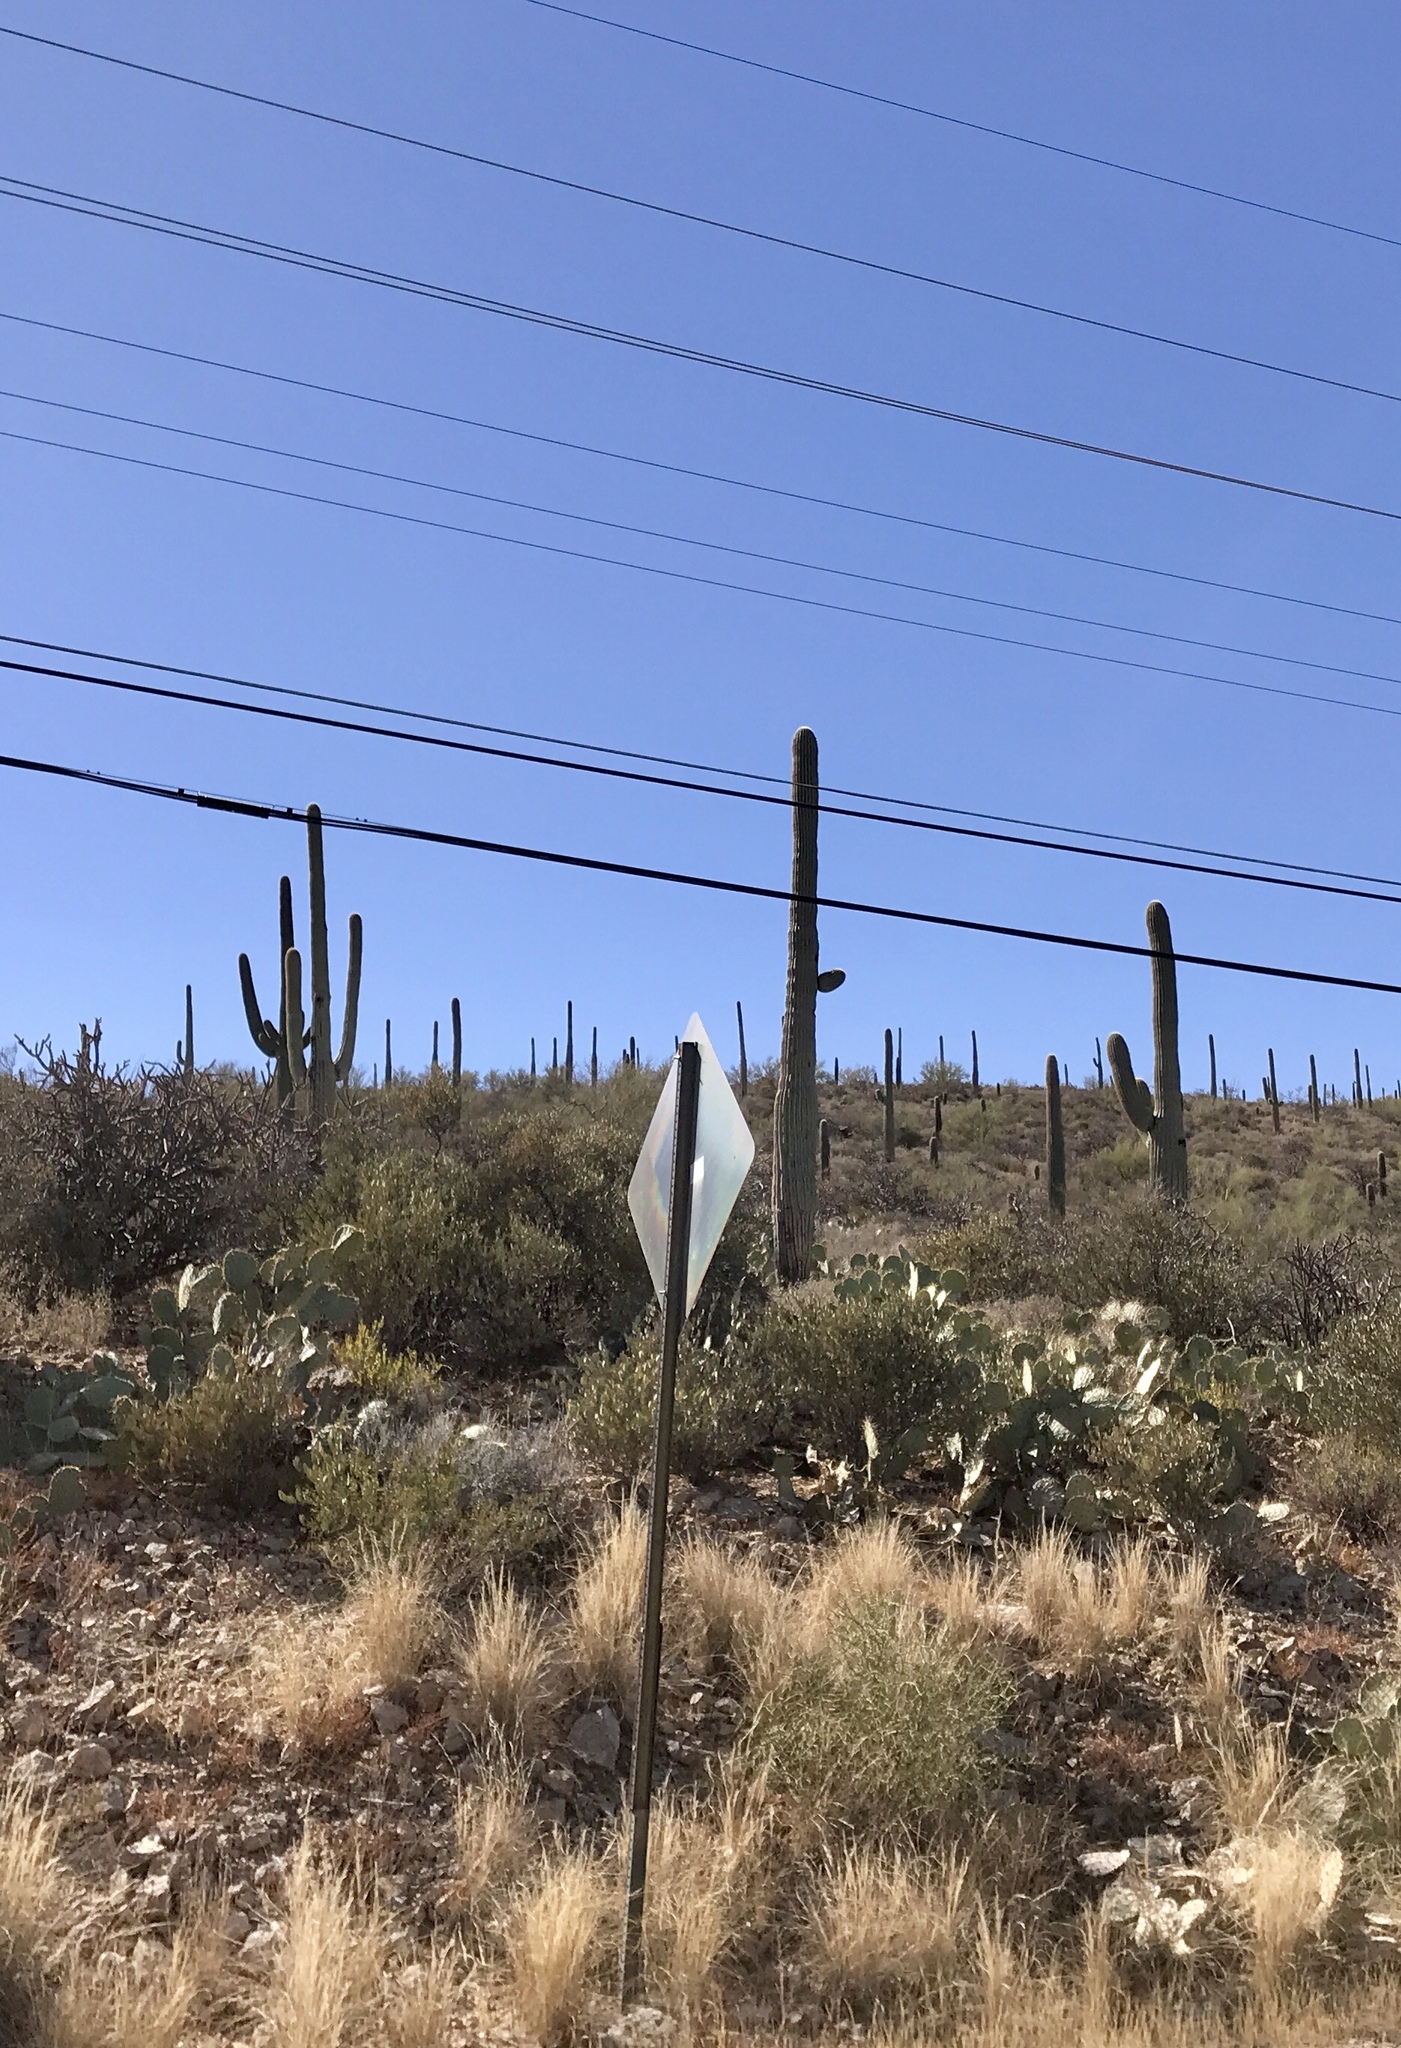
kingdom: Plantae
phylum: Tracheophyta
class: Magnoliopsida
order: Caryophyllales
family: Cactaceae
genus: Carnegiea
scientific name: Carnegiea gigantea
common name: Saguaro
